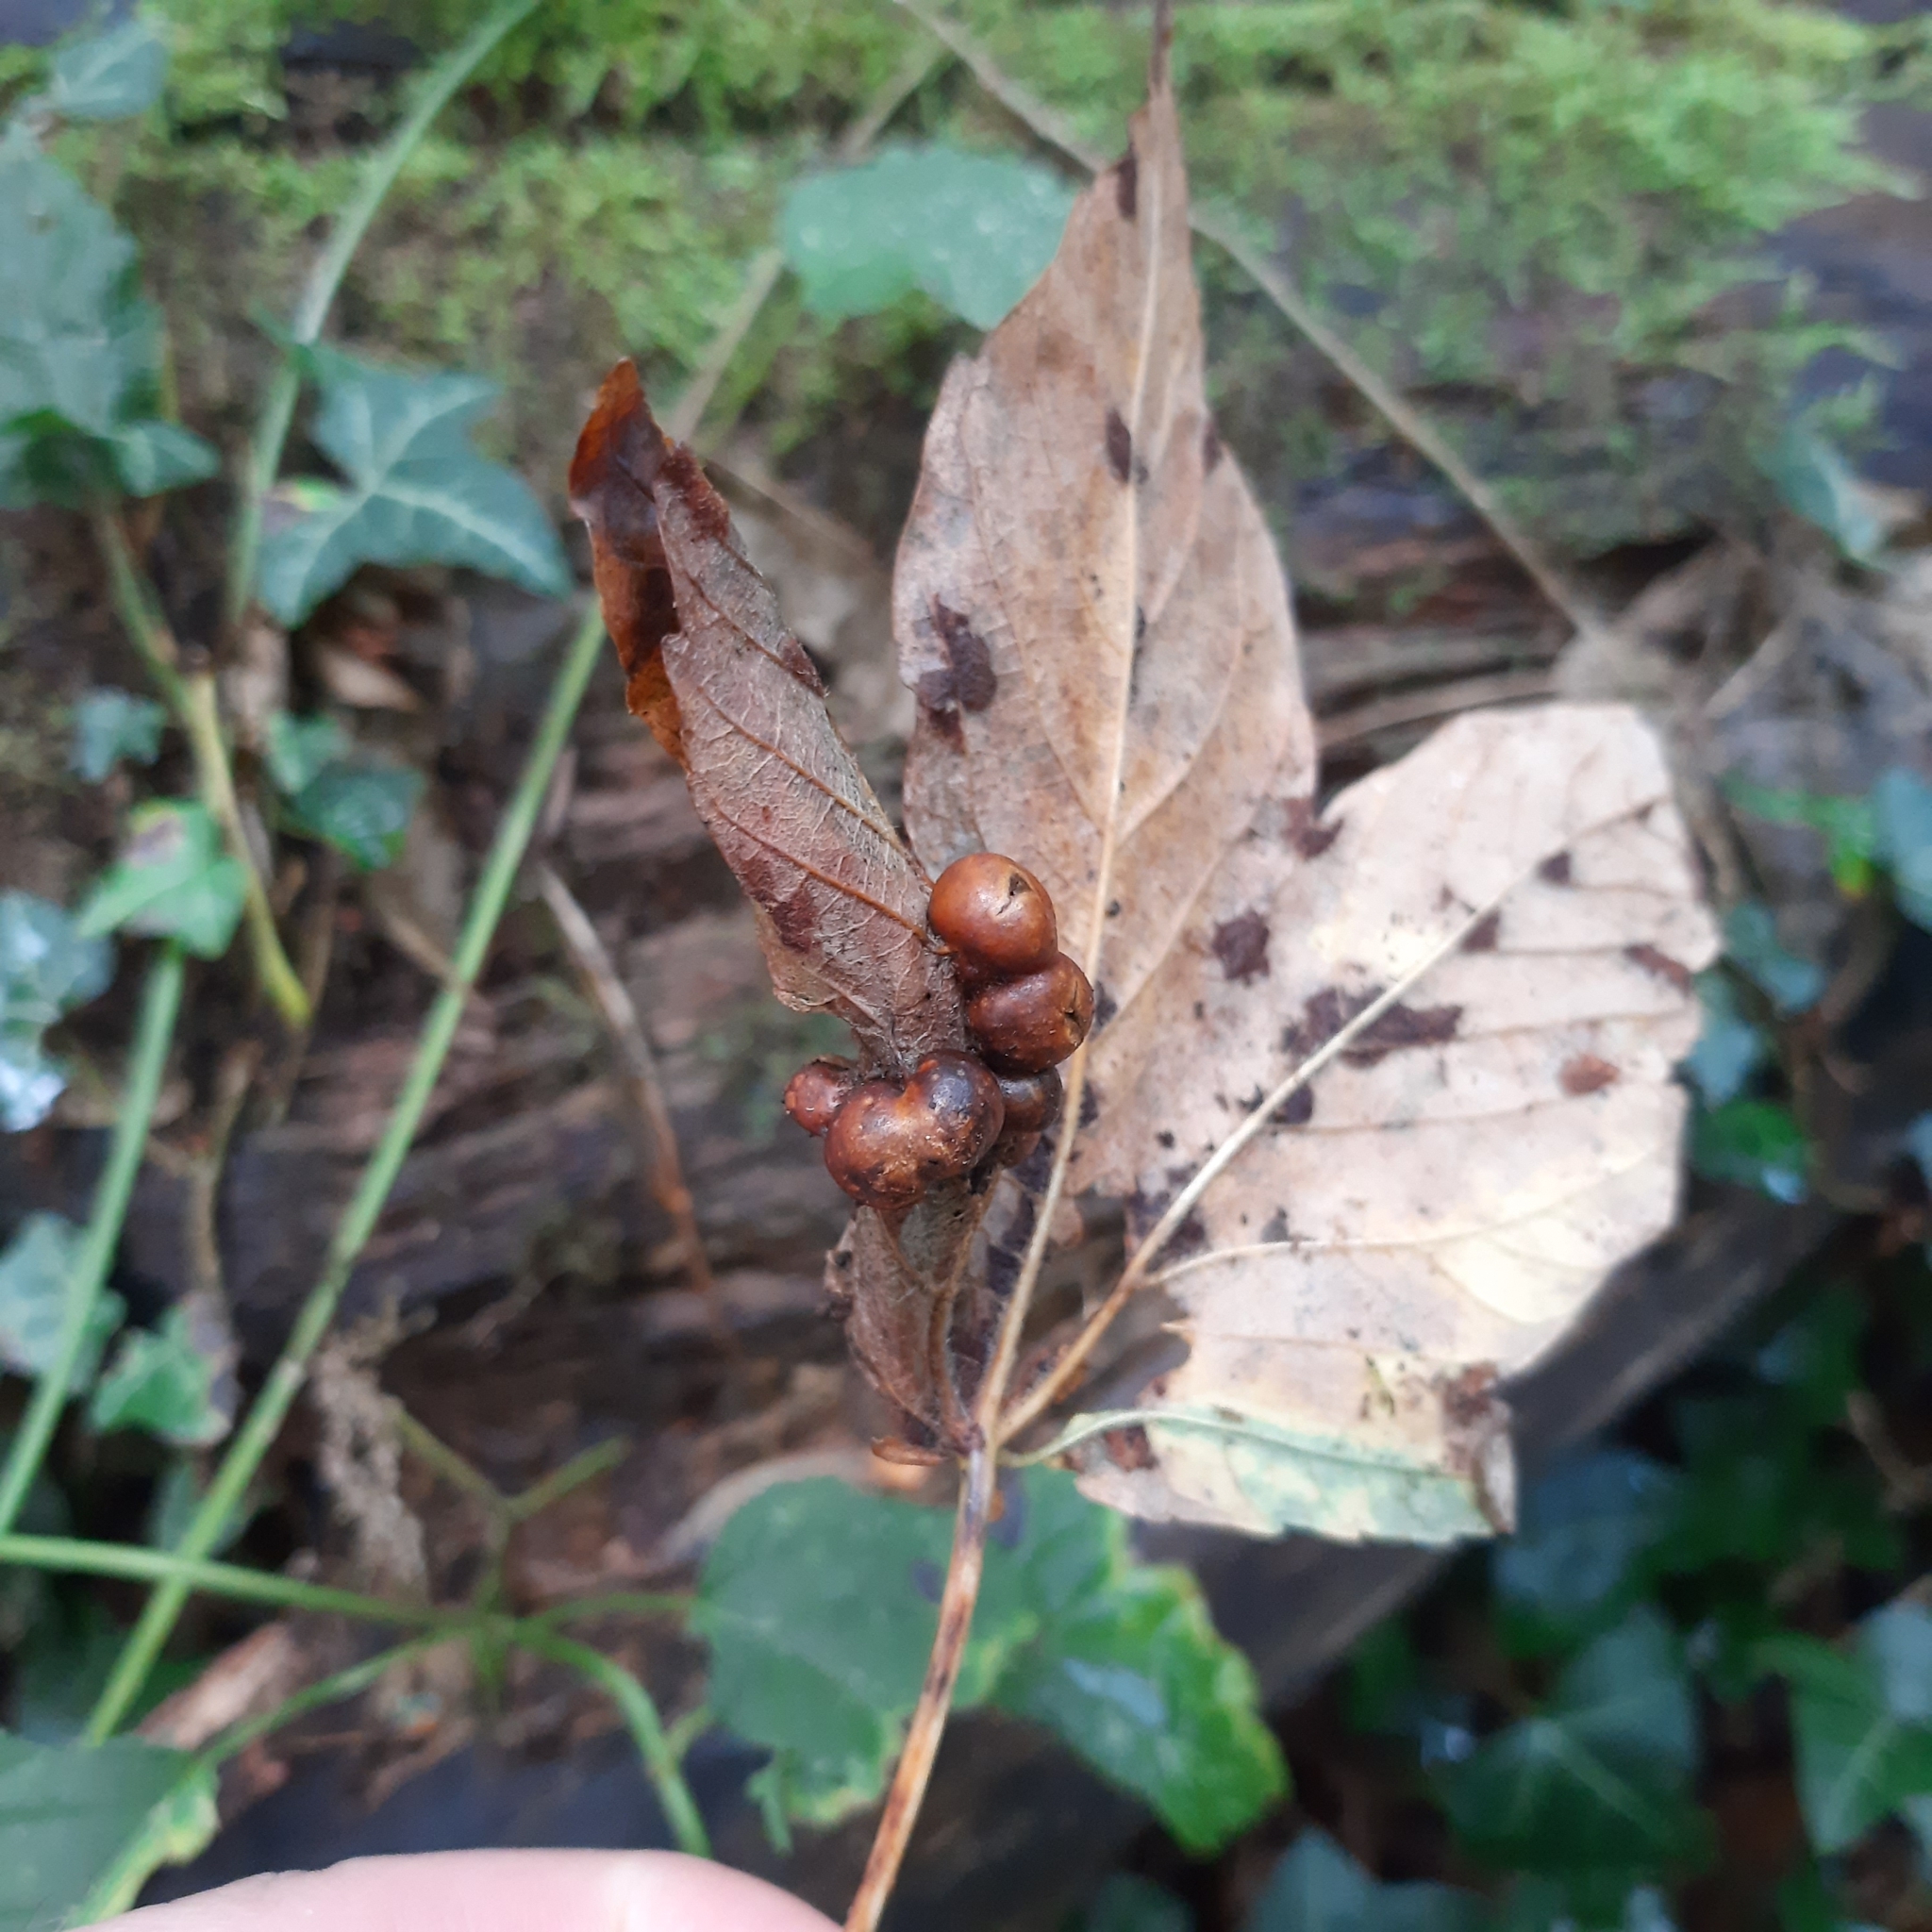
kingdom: Animalia
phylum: Arthropoda
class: Insecta
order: Hymenoptera
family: Cynipidae
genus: Pediaspis
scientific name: Pediaspis aceris
